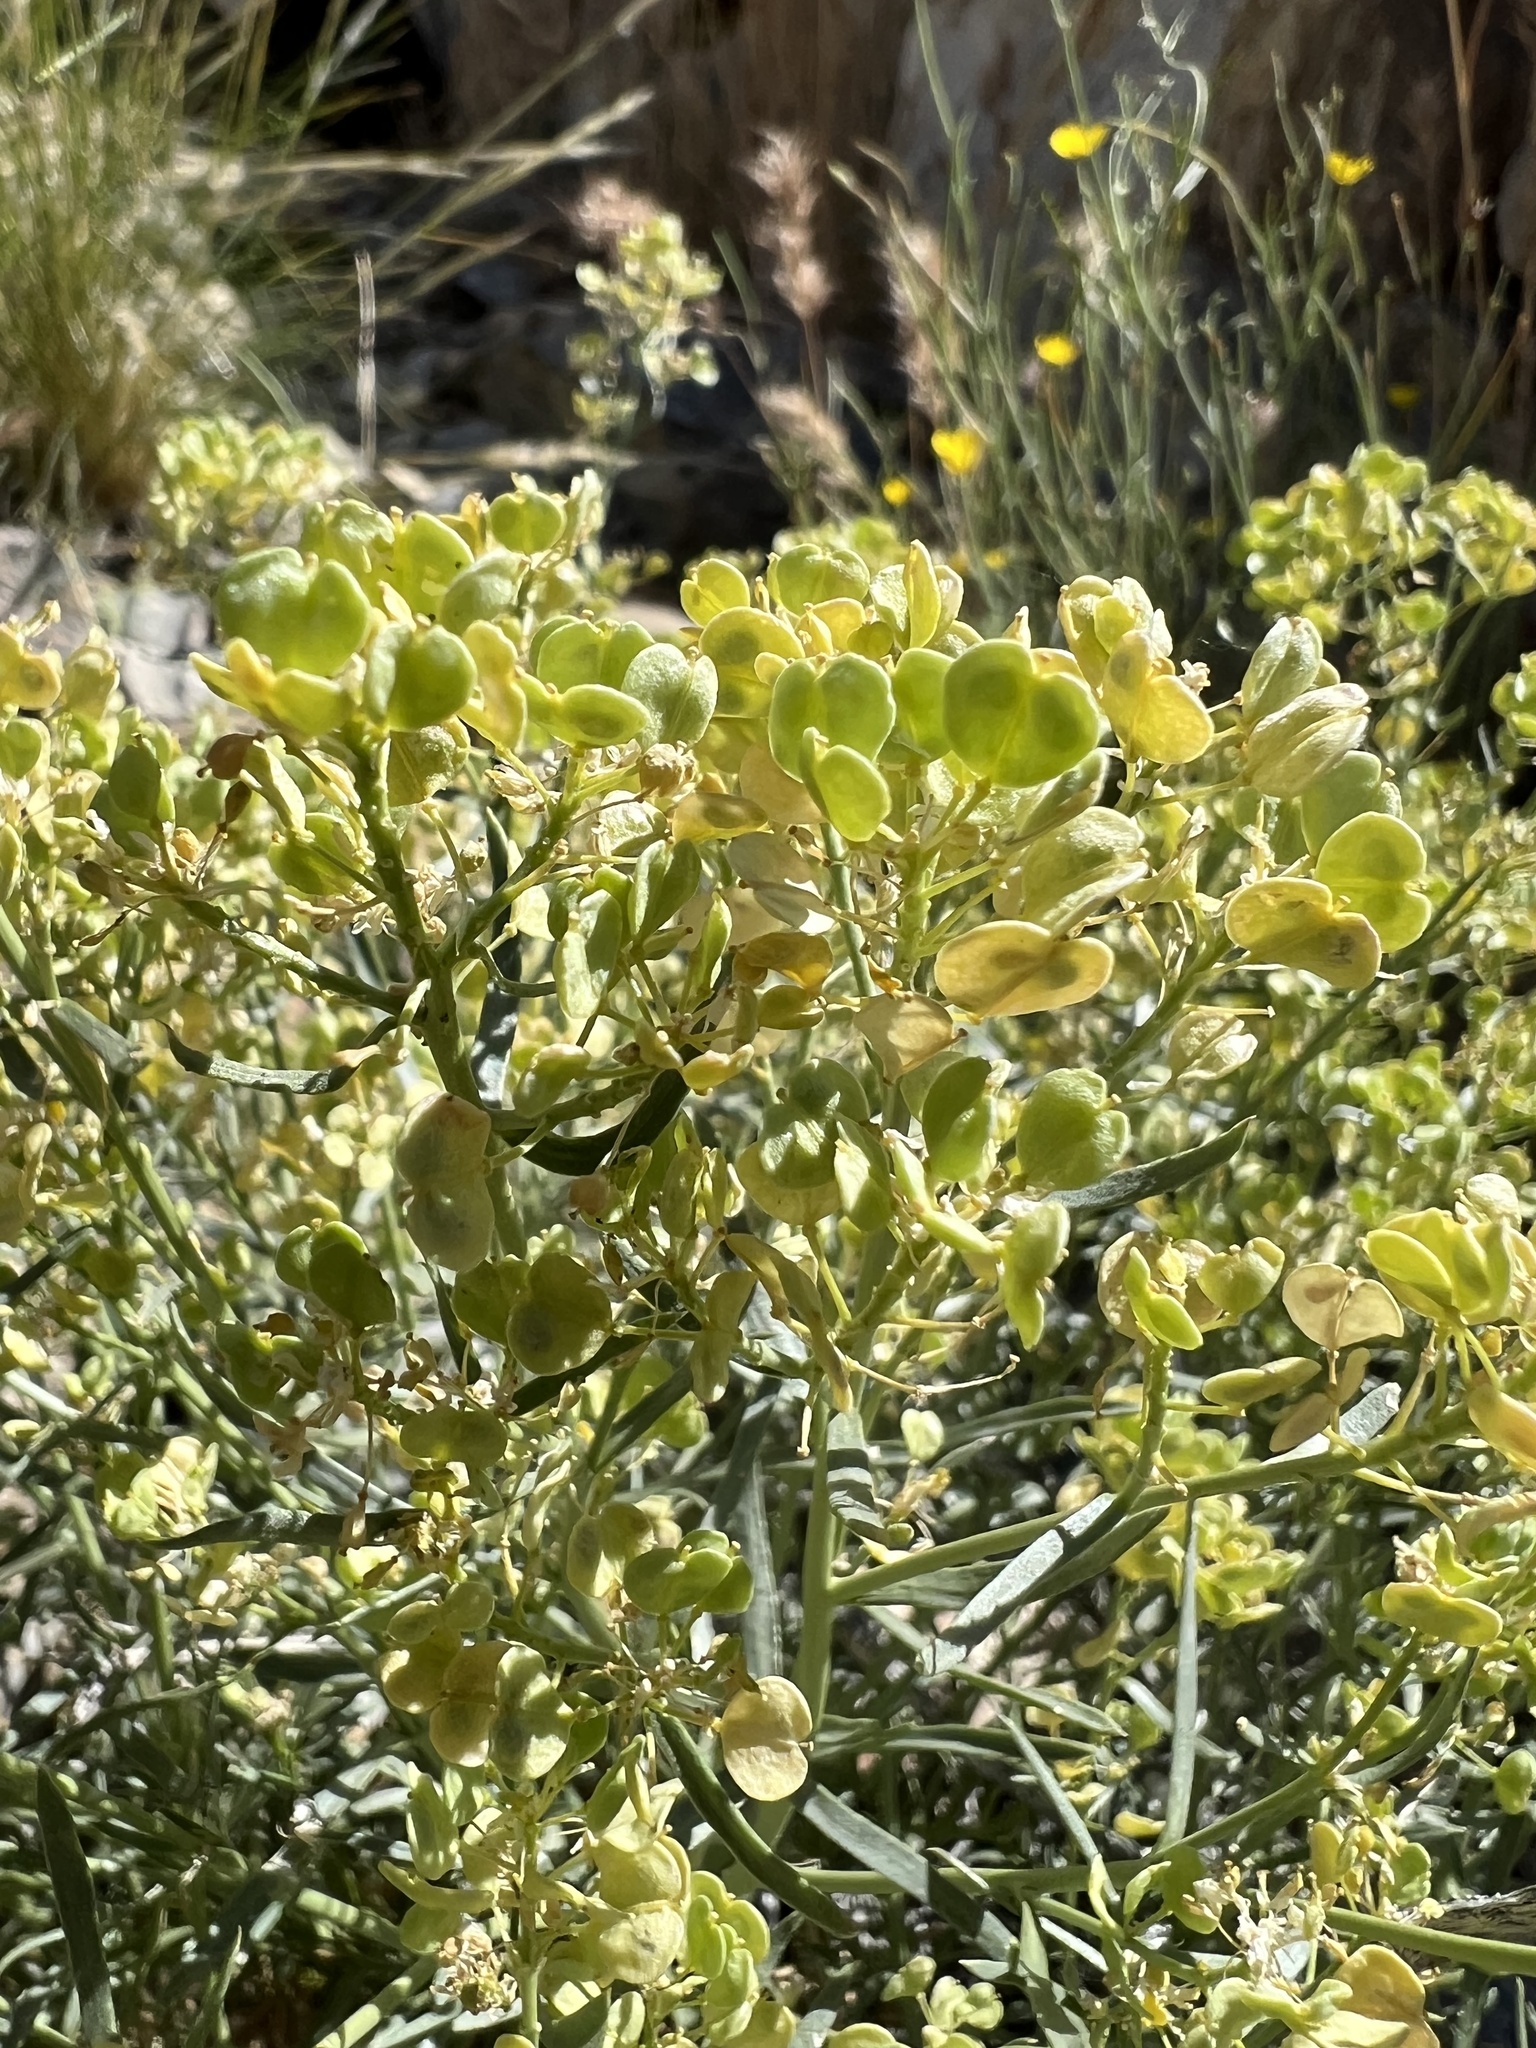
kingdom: Plantae
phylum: Tracheophyta
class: Magnoliopsida
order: Brassicales
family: Brassicaceae
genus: Lepidium
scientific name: Lepidium fremontii
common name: Fremont's pepperwort
